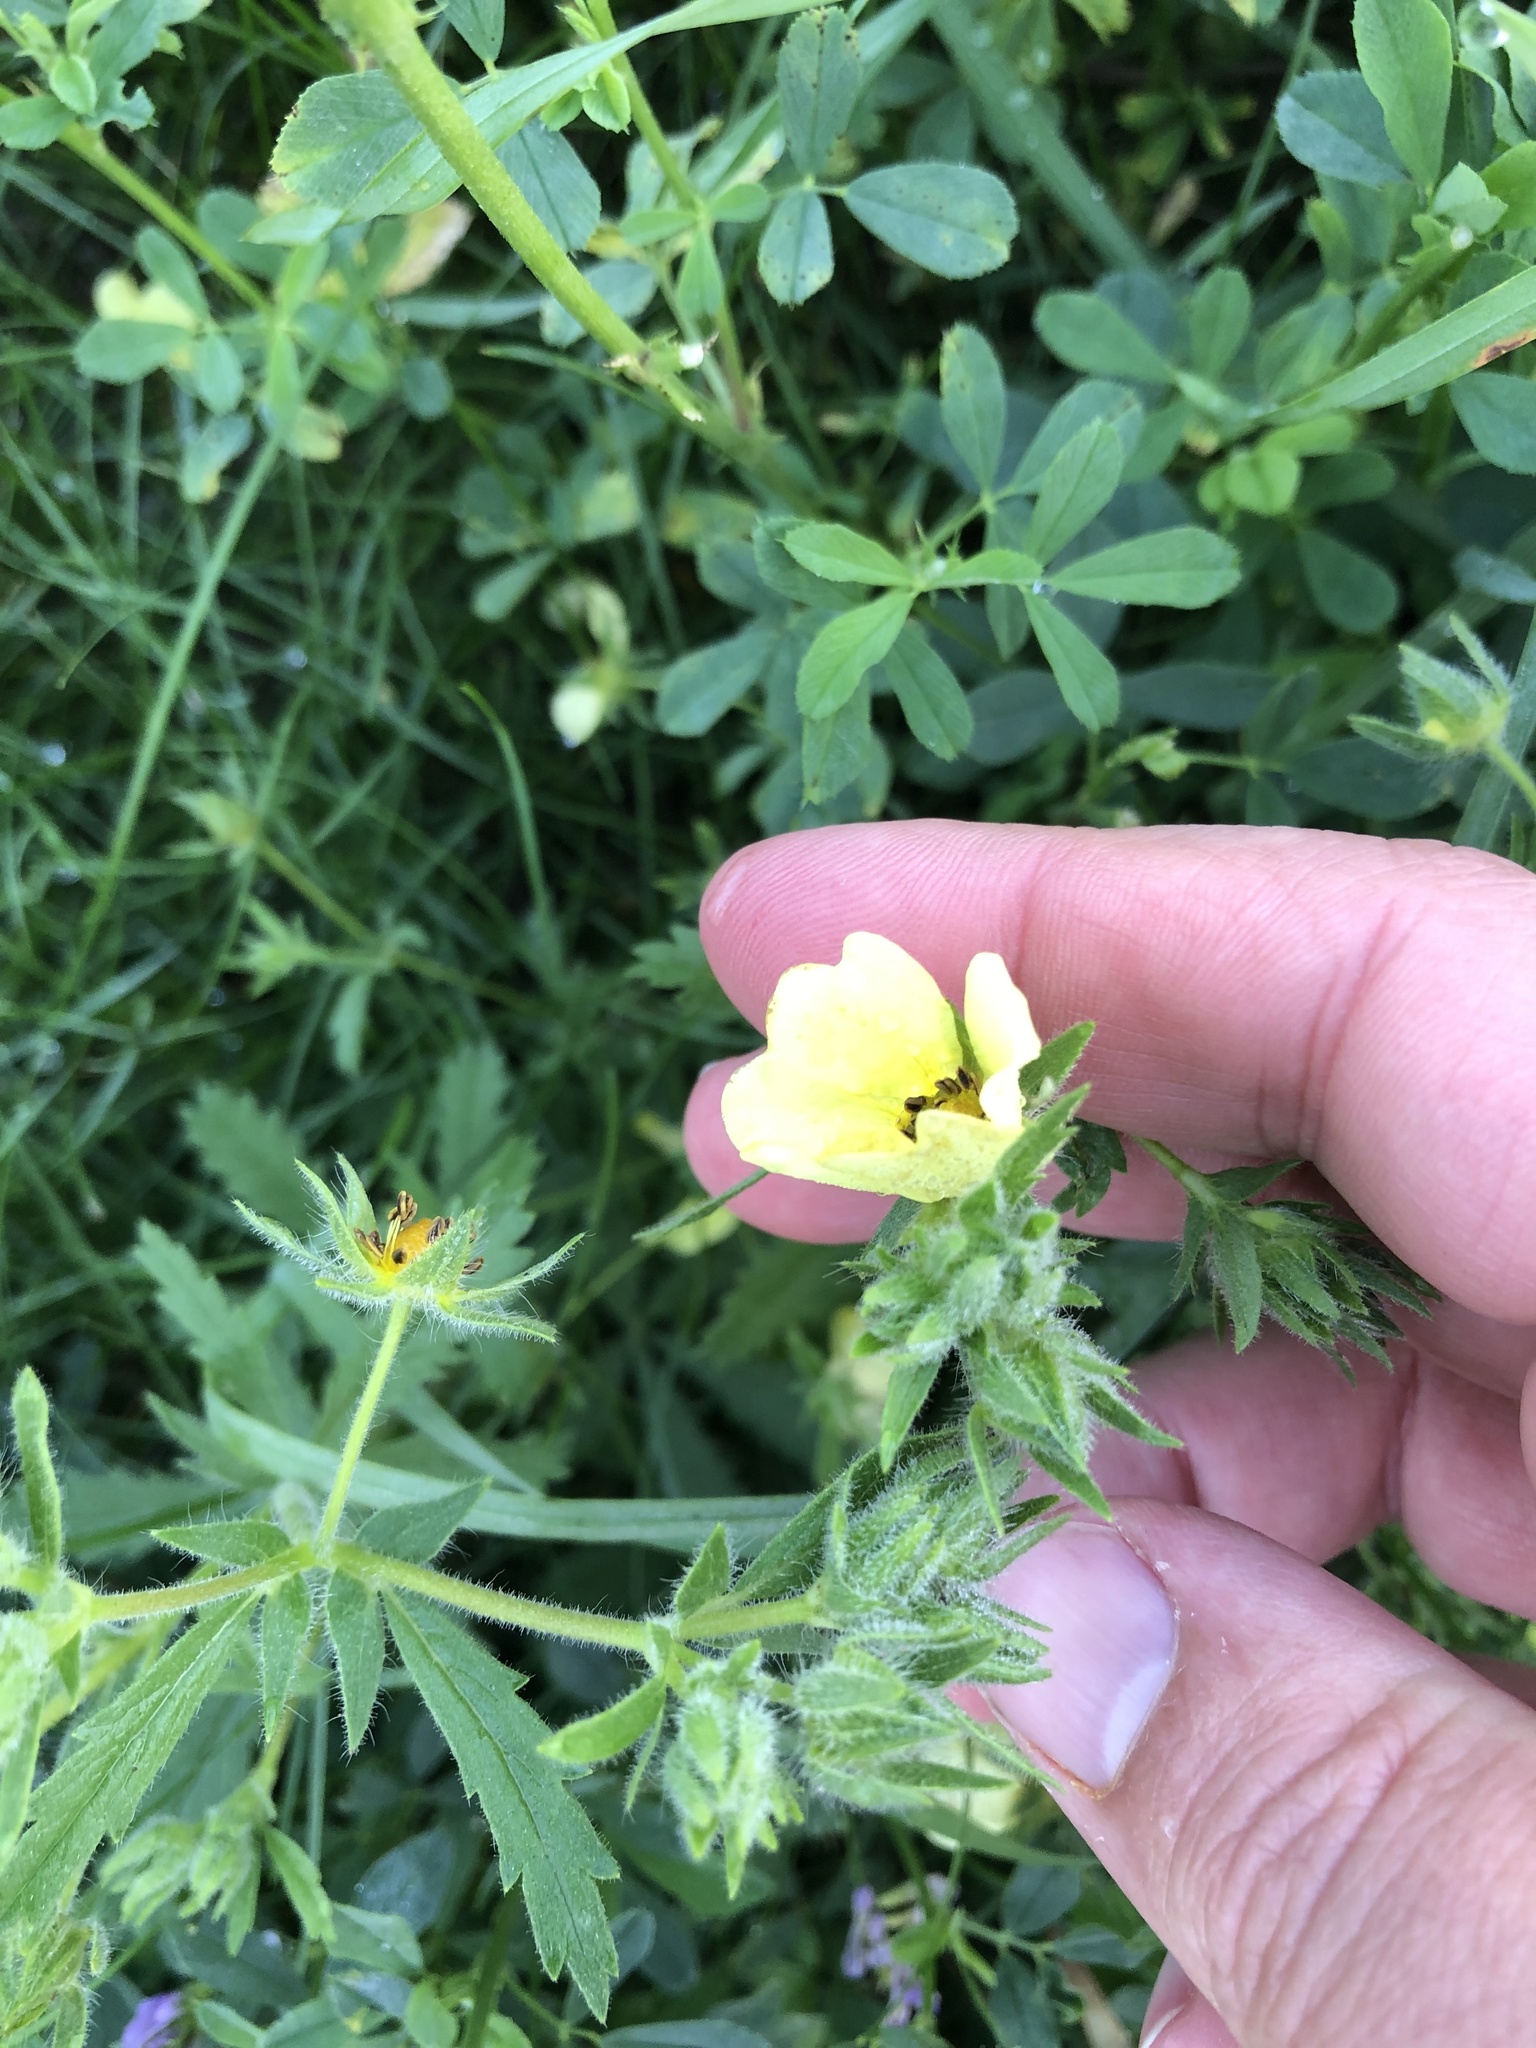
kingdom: Plantae
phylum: Tracheophyta
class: Magnoliopsida
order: Rosales
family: Rosaceae
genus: Potentilla
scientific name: Potentilla recta
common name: Sulphur cinquefoil
